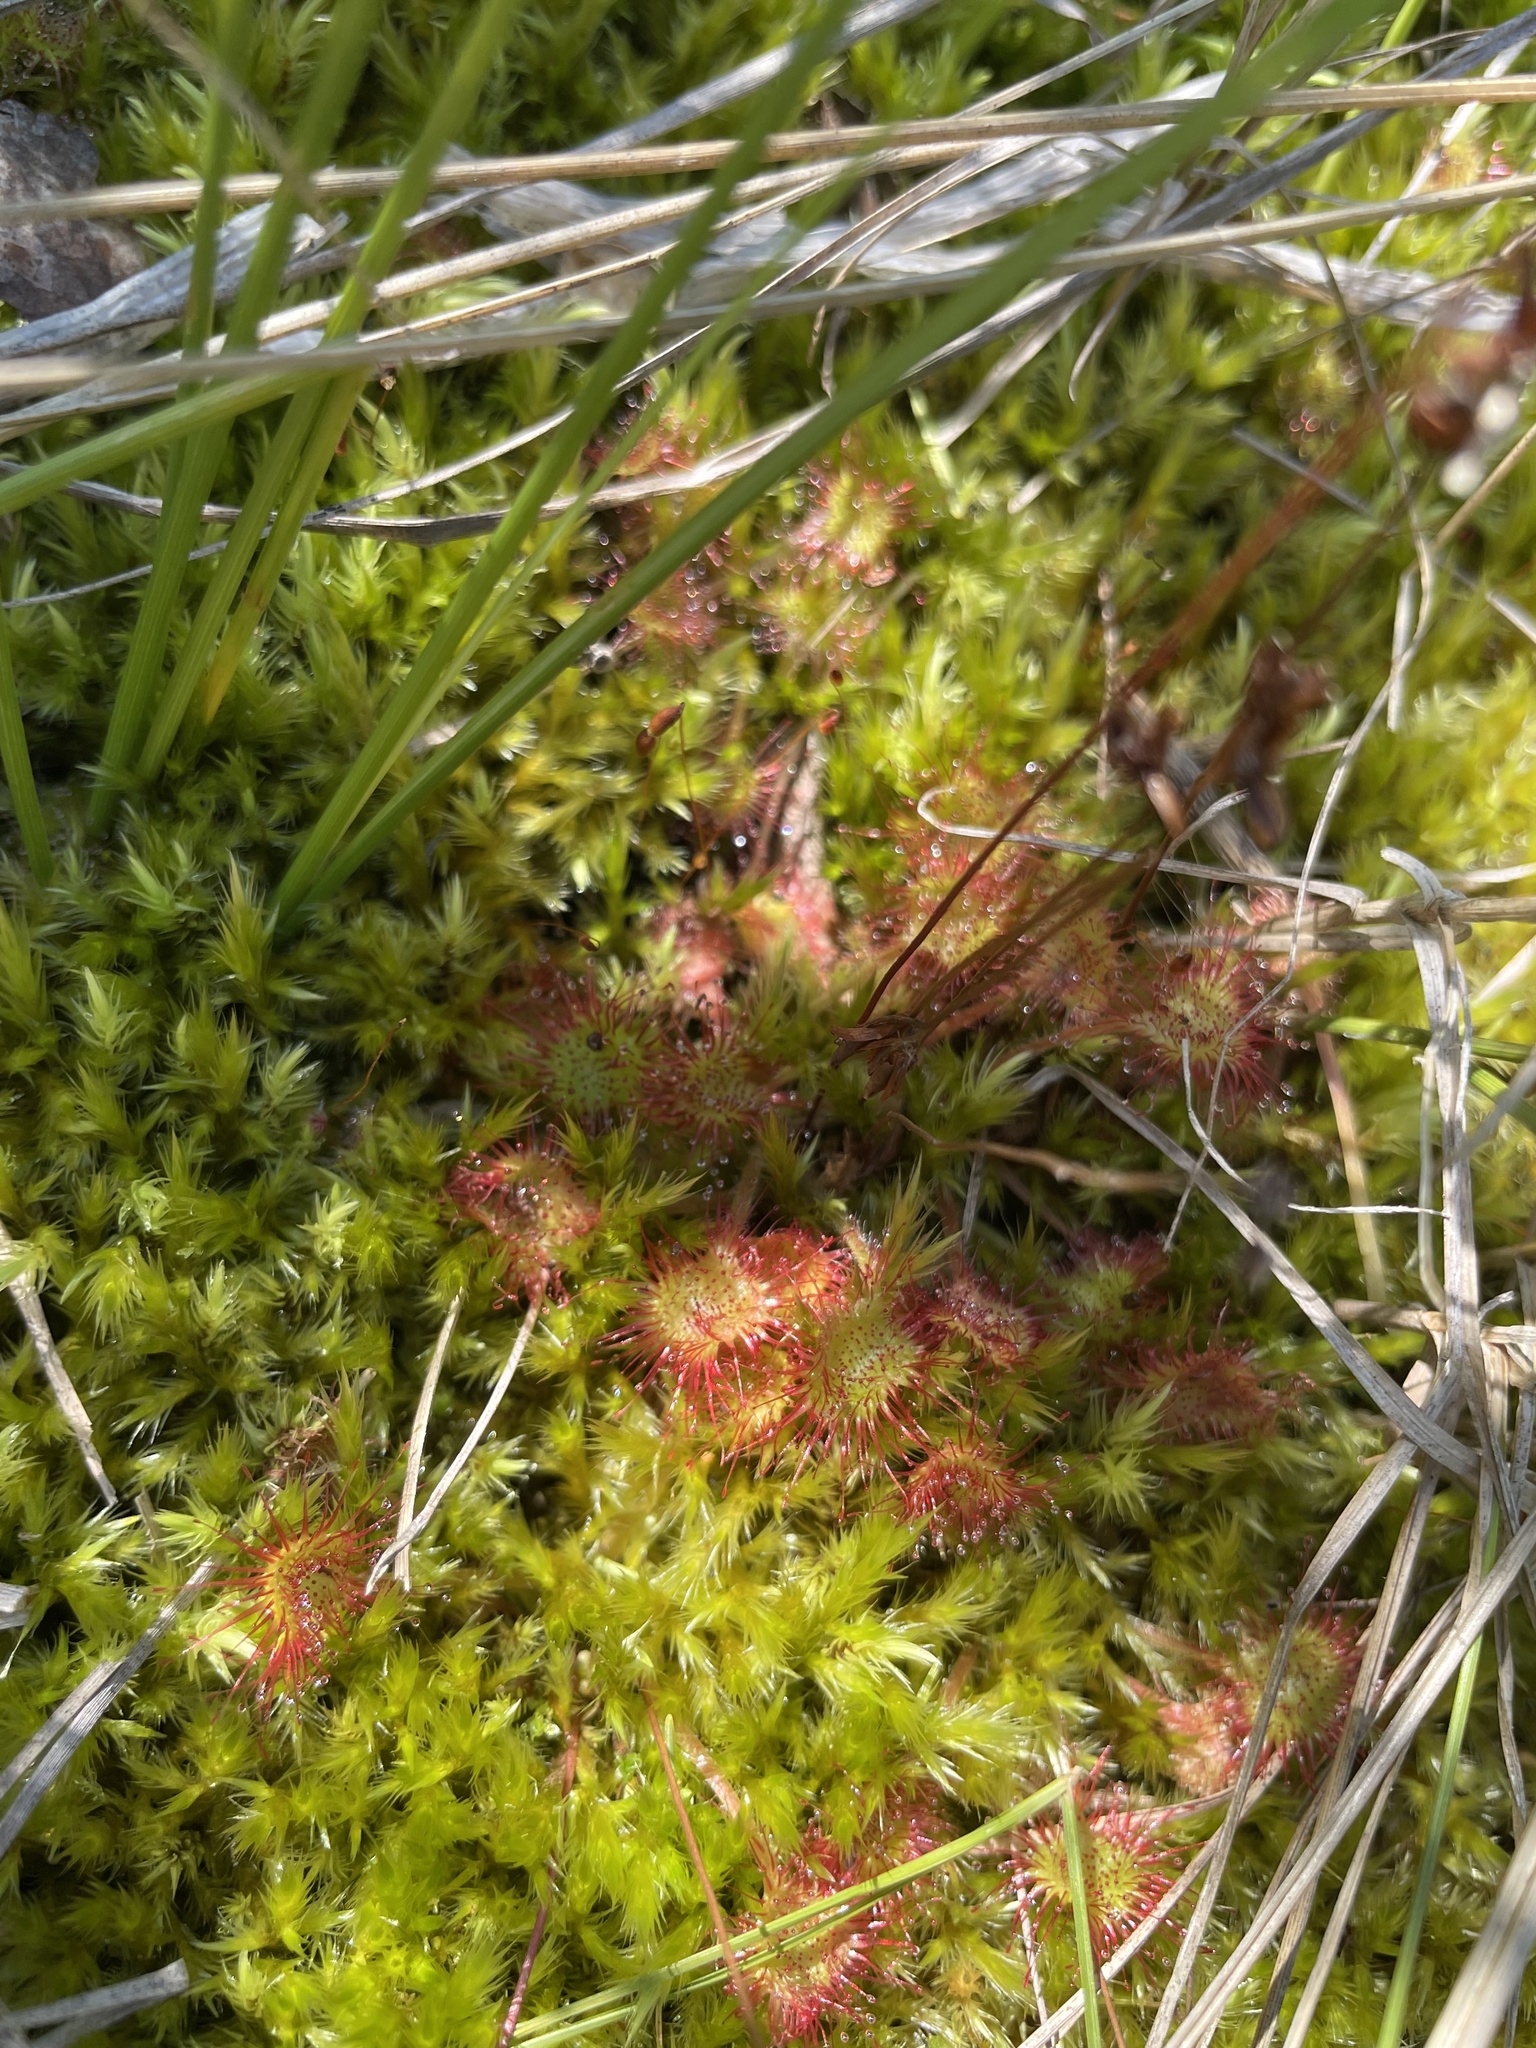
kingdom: Plantae
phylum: Tracheophyta
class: Magnoliopsida
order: Caryophyllales
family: Droseraceae
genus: Drosera
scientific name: Drosera rotundifolia
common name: Round-leaved sundew
